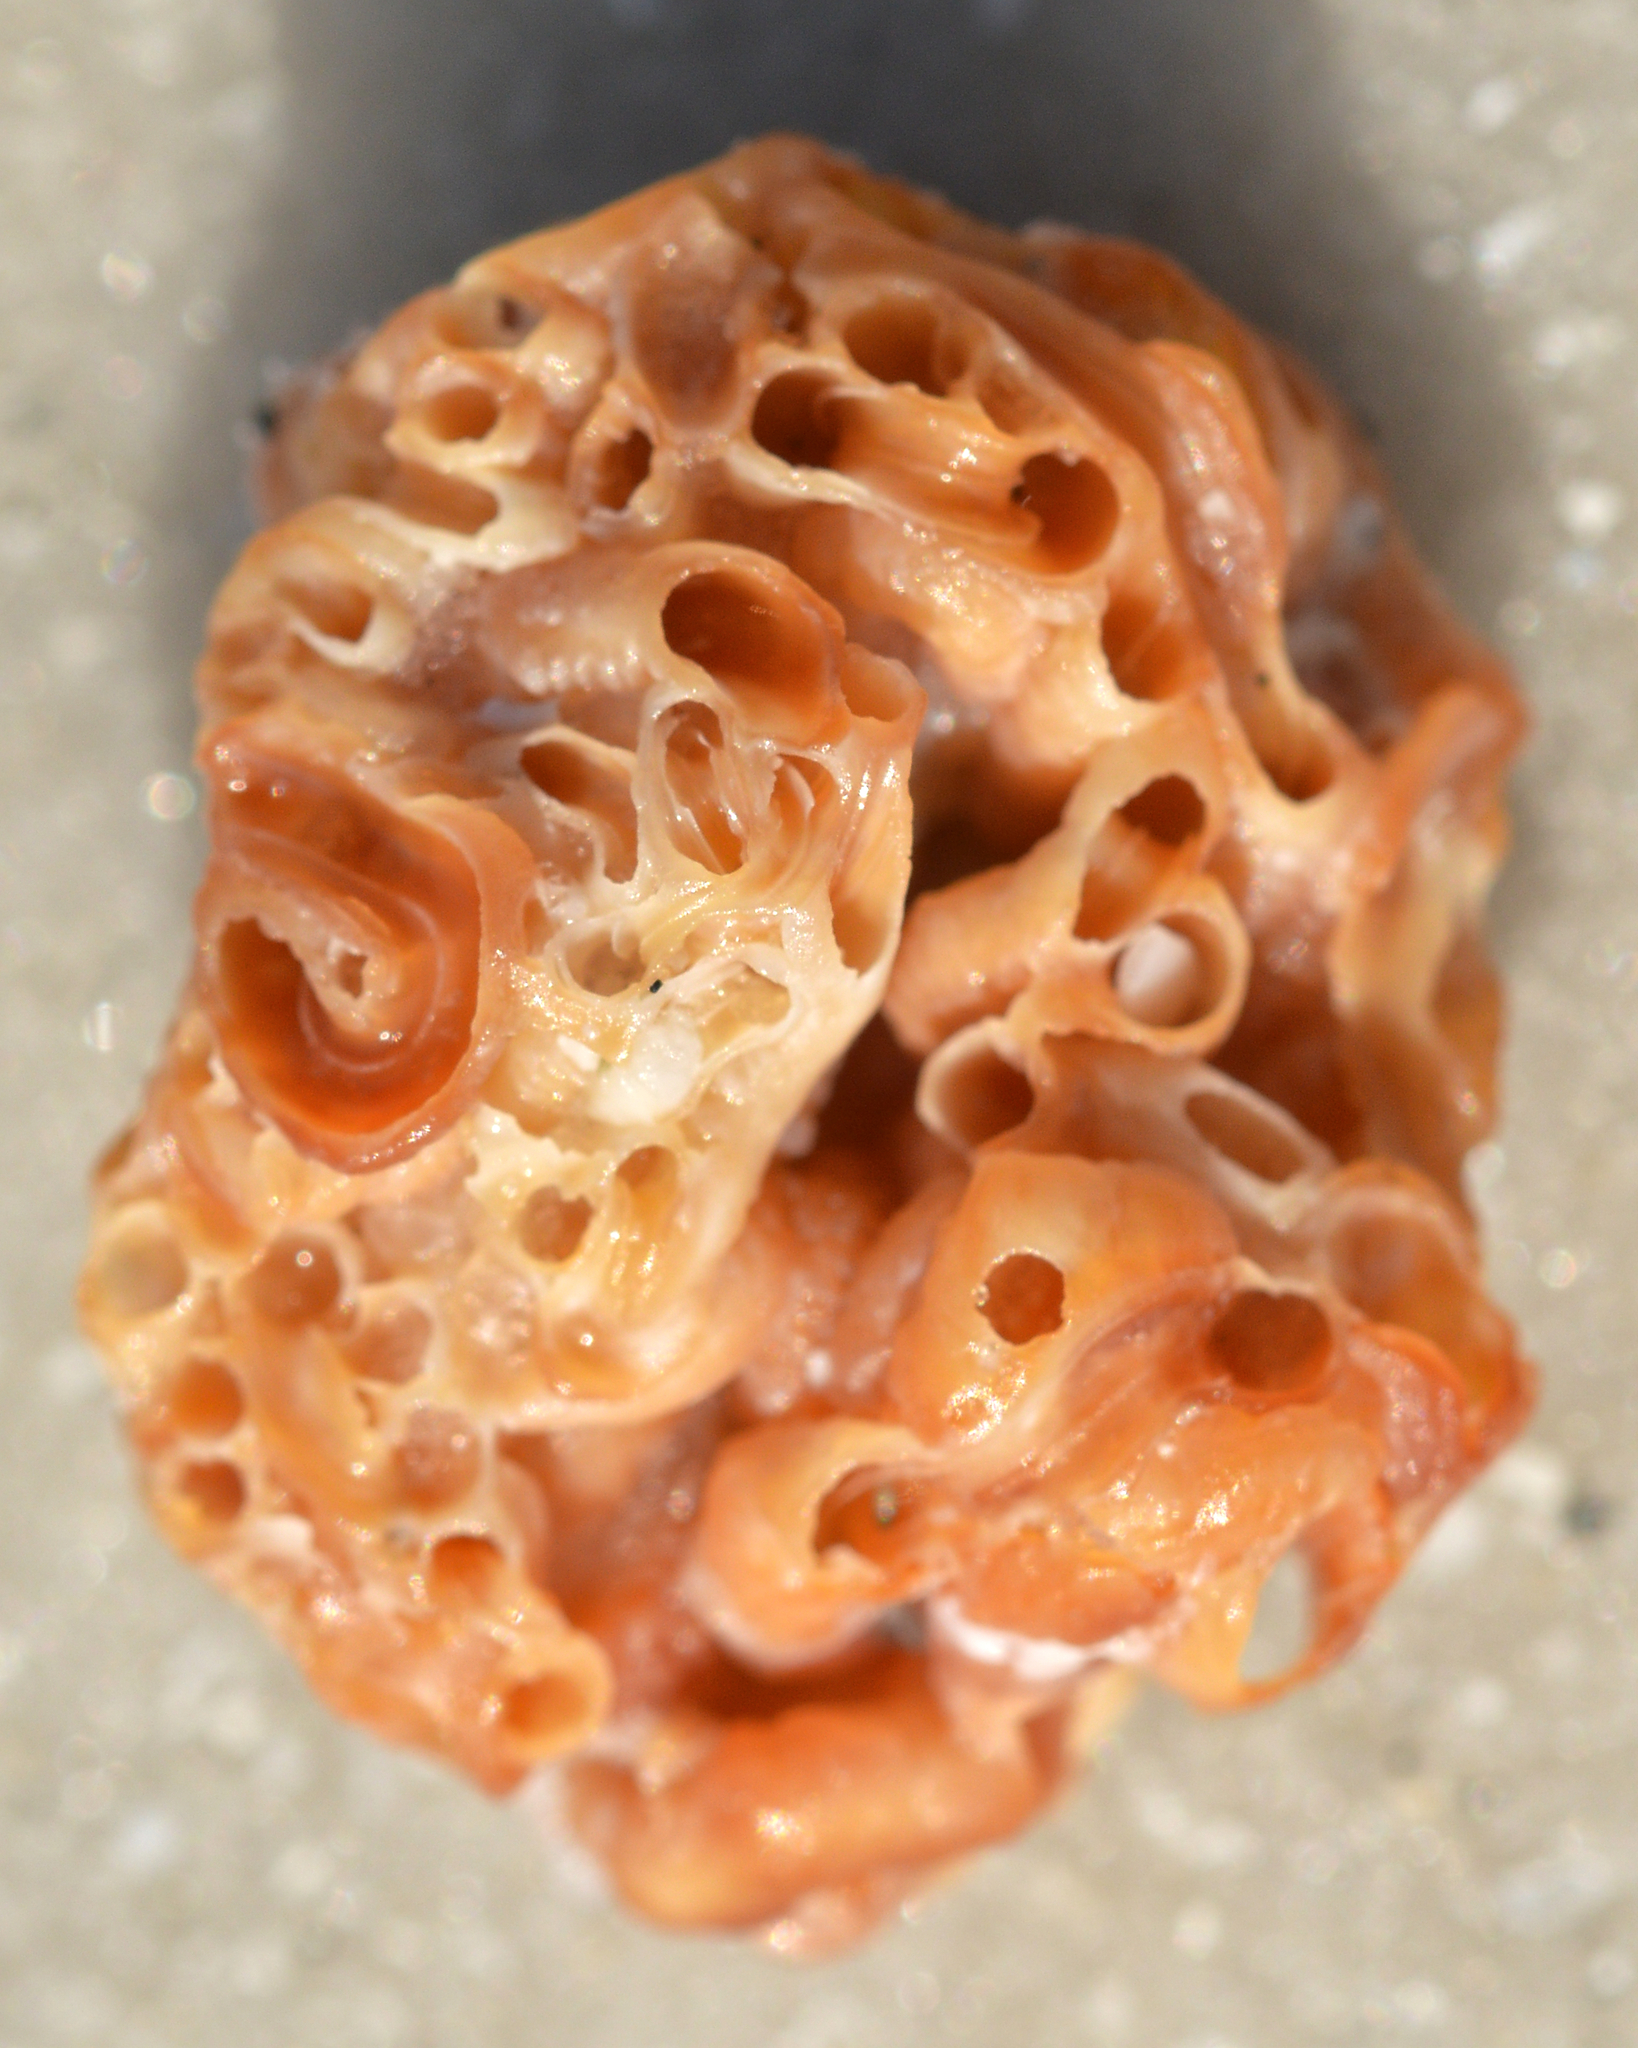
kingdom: Animalia
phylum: Mollusca
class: Gastropoda
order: Littorinimorpha
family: Vermetidae
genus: Petaloconchus
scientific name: Petaloconchus varians
